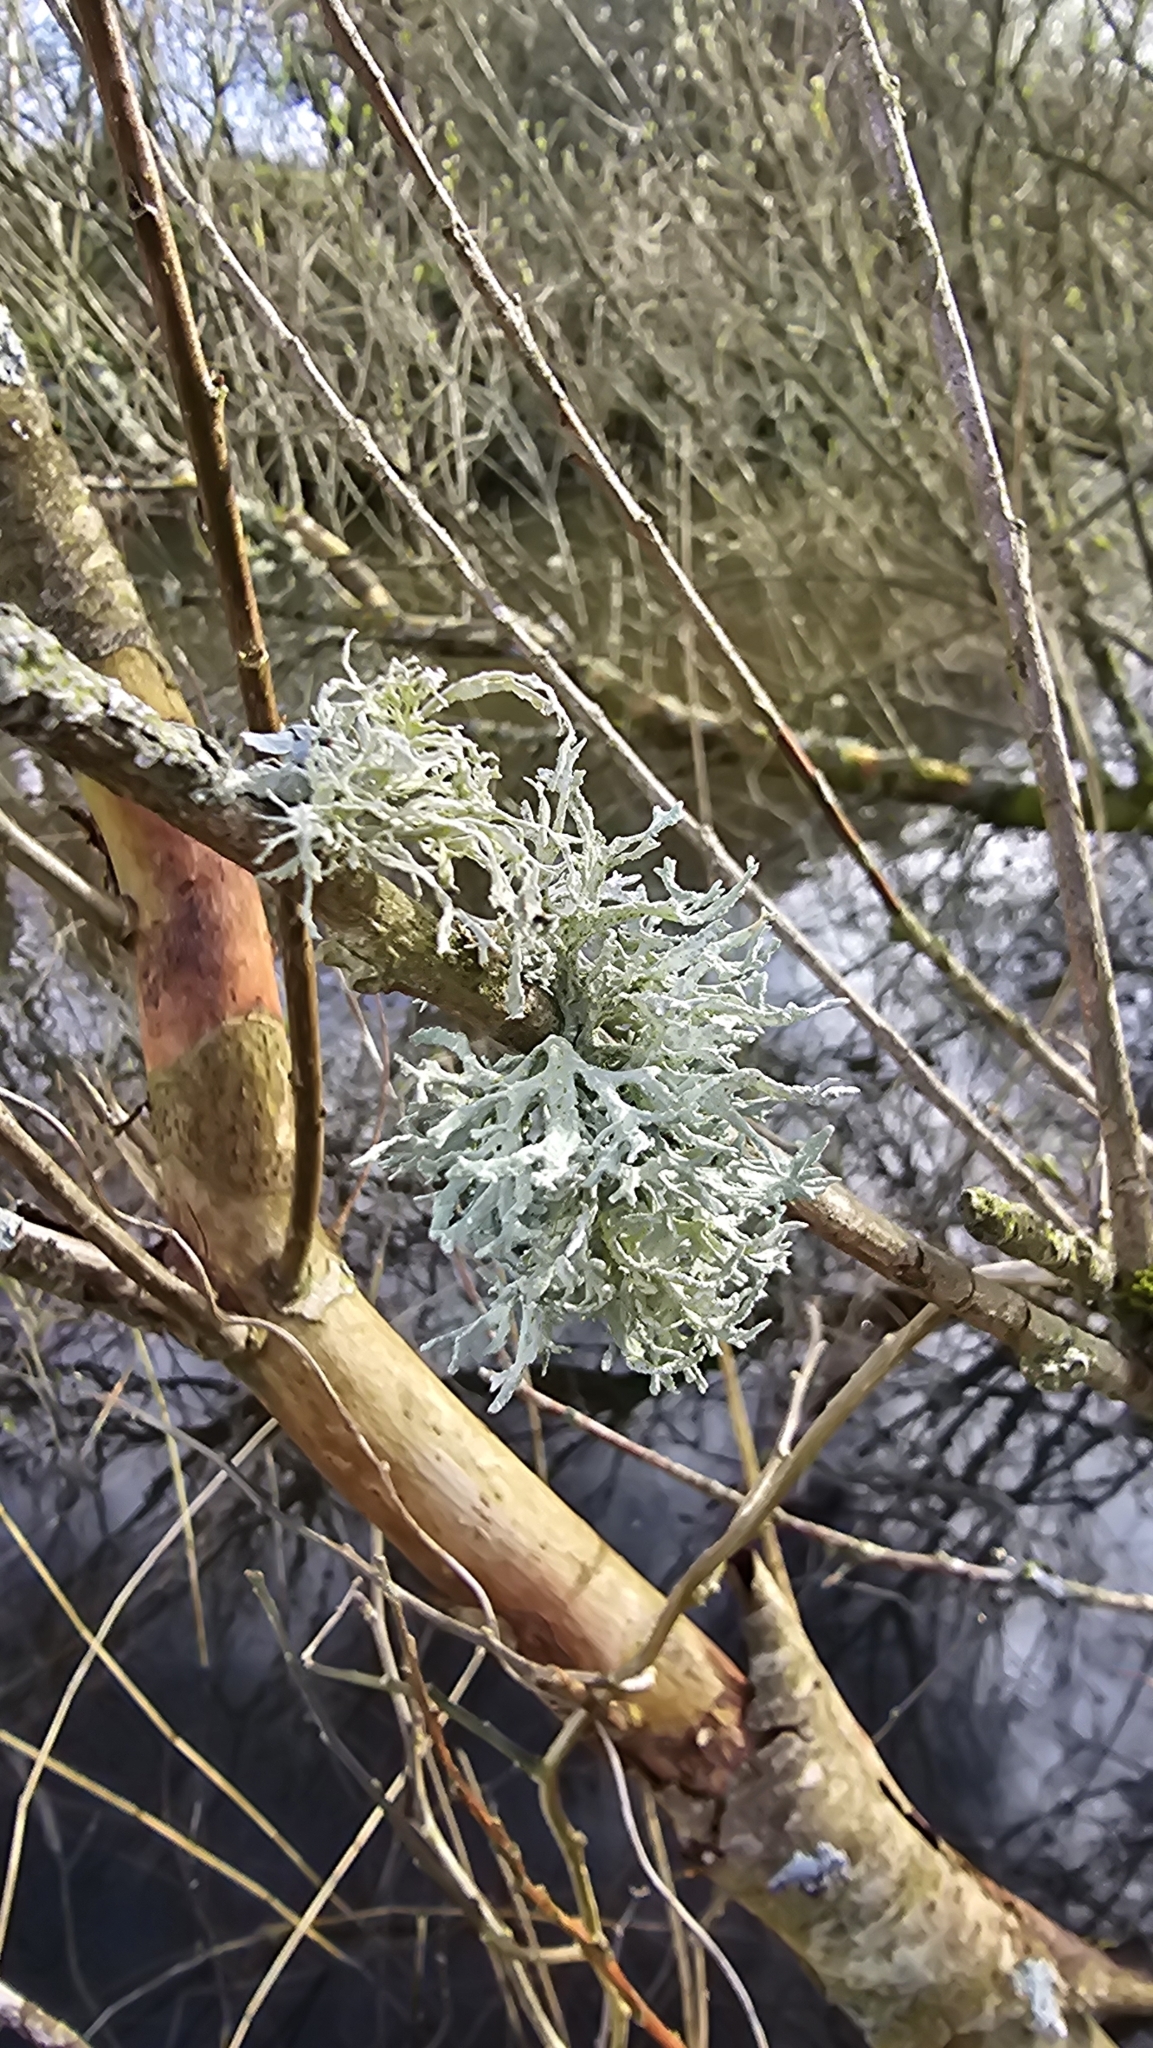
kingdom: Fungi
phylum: Ascomycota
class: Lecanoromycetes
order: Lecanorales
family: Parmeliaceae
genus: Evernia
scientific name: Evernia prunastri
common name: Oak moss
